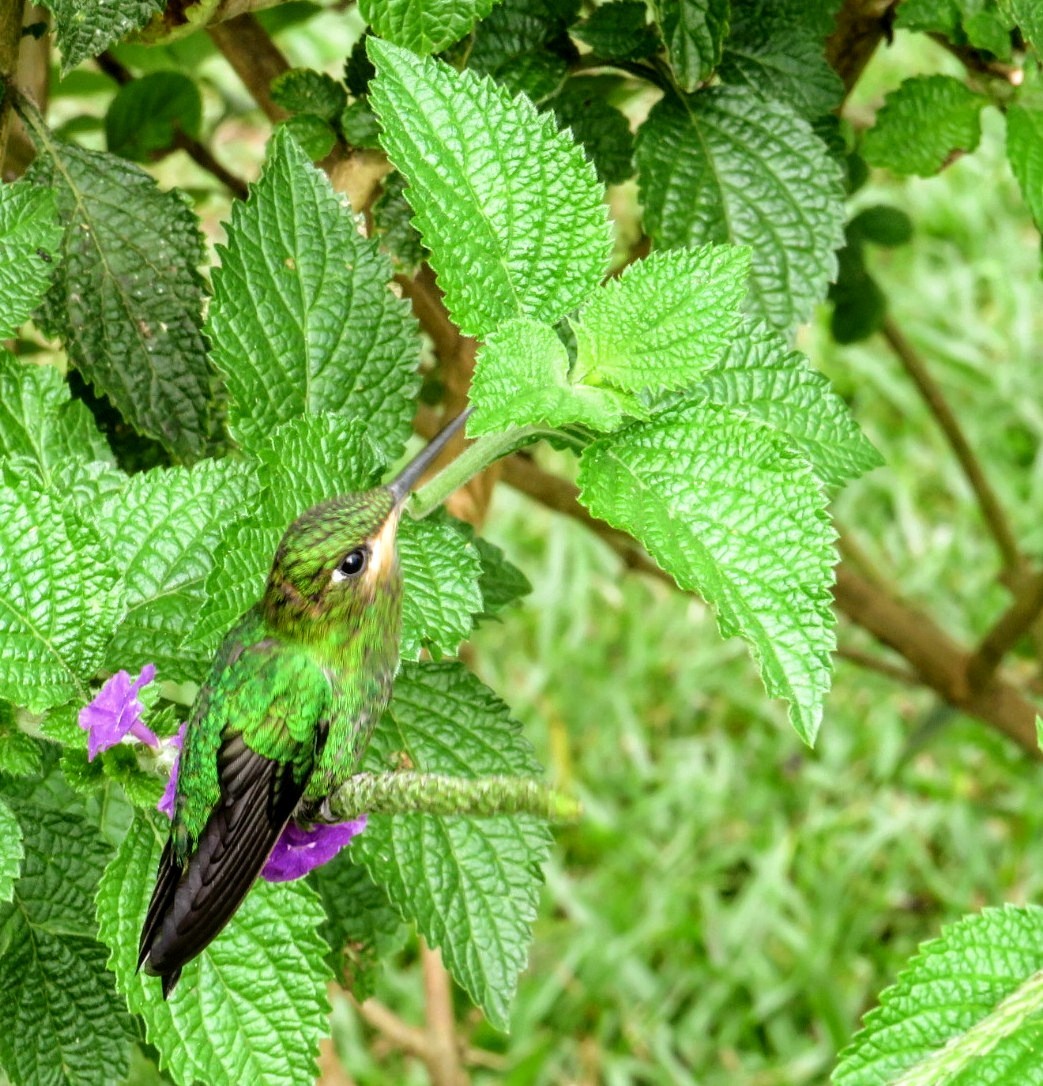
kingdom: Animalia
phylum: Chordata
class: Aves
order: Apodiformes
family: Trochilidae
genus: Heliodoxa
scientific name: Heliodoxa jacula
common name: Green-crowned brilliant
